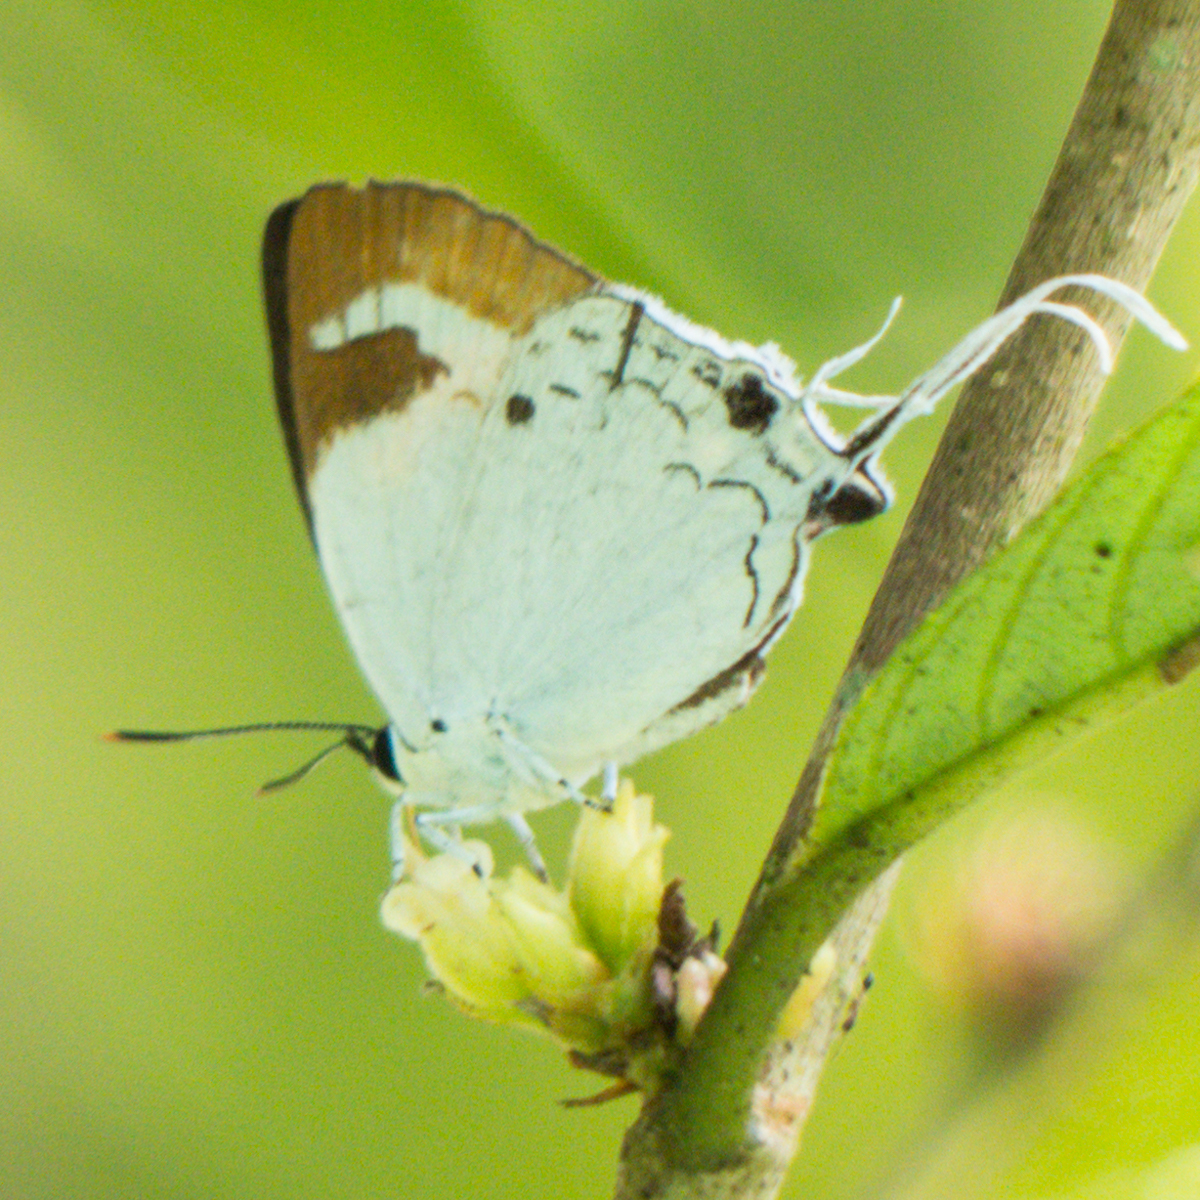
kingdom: Animalia
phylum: Arthropoda
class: Insecta
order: Lepidoptera
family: Lycaenidae
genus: Suasa
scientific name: Suasa lisides
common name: Red imperial
